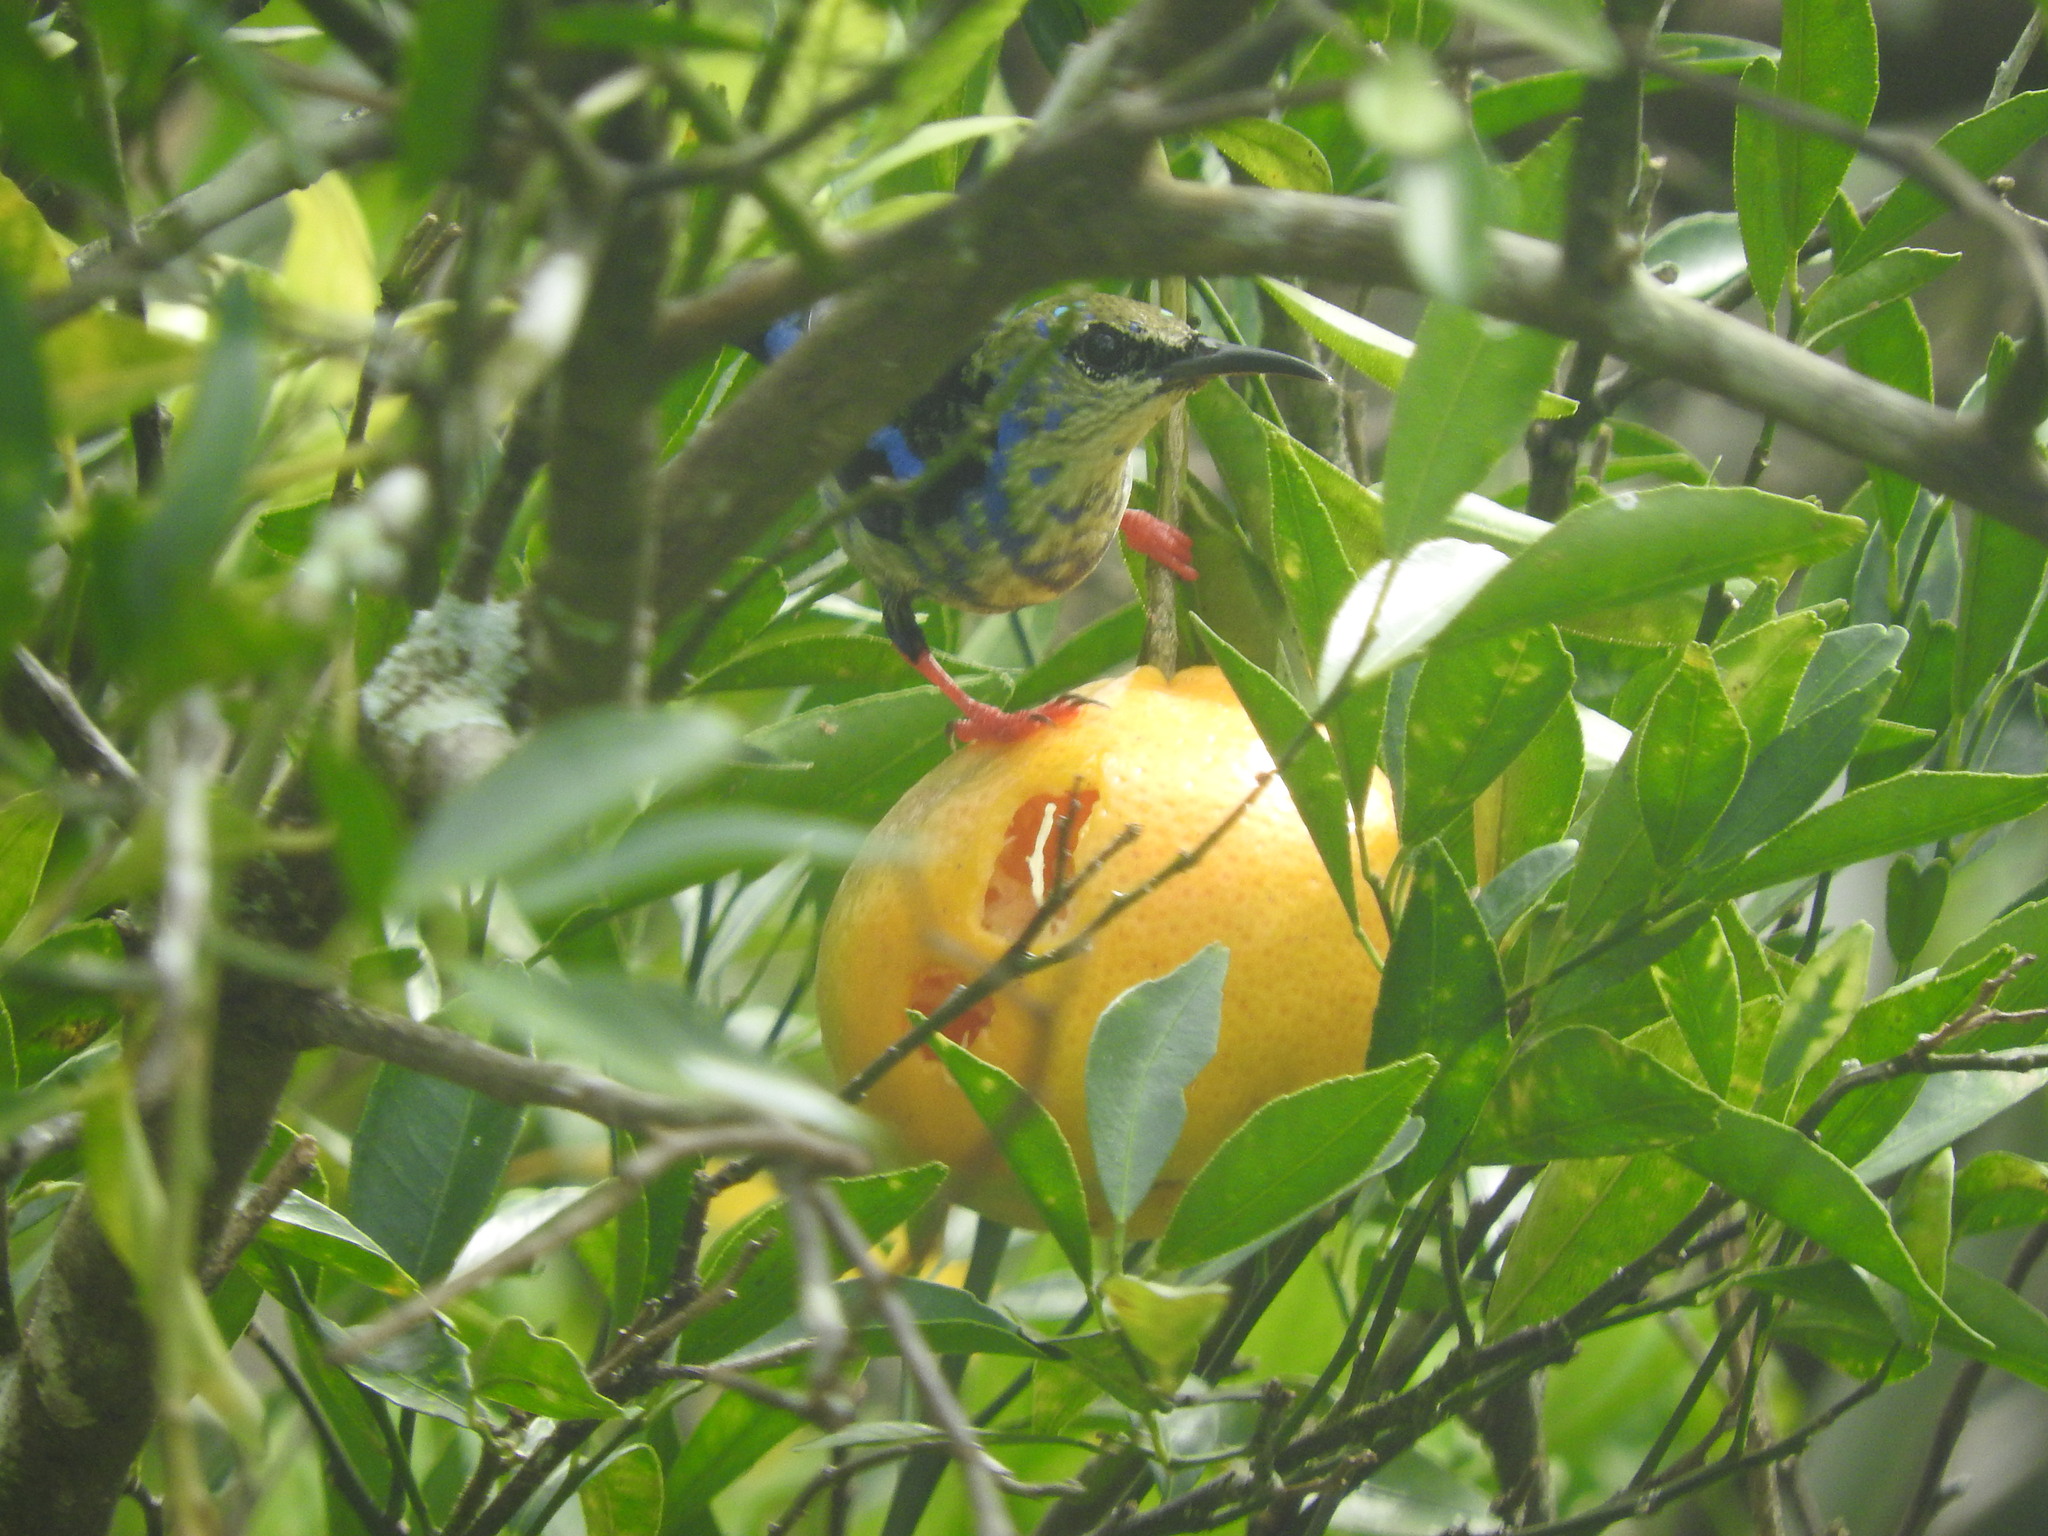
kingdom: Animalia
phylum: Chordata
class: Aves
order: Passeriformes
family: Thraupidae
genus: Cyanerpes
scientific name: Cyanerpes cyaneus
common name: Red-legged honeycreeper
